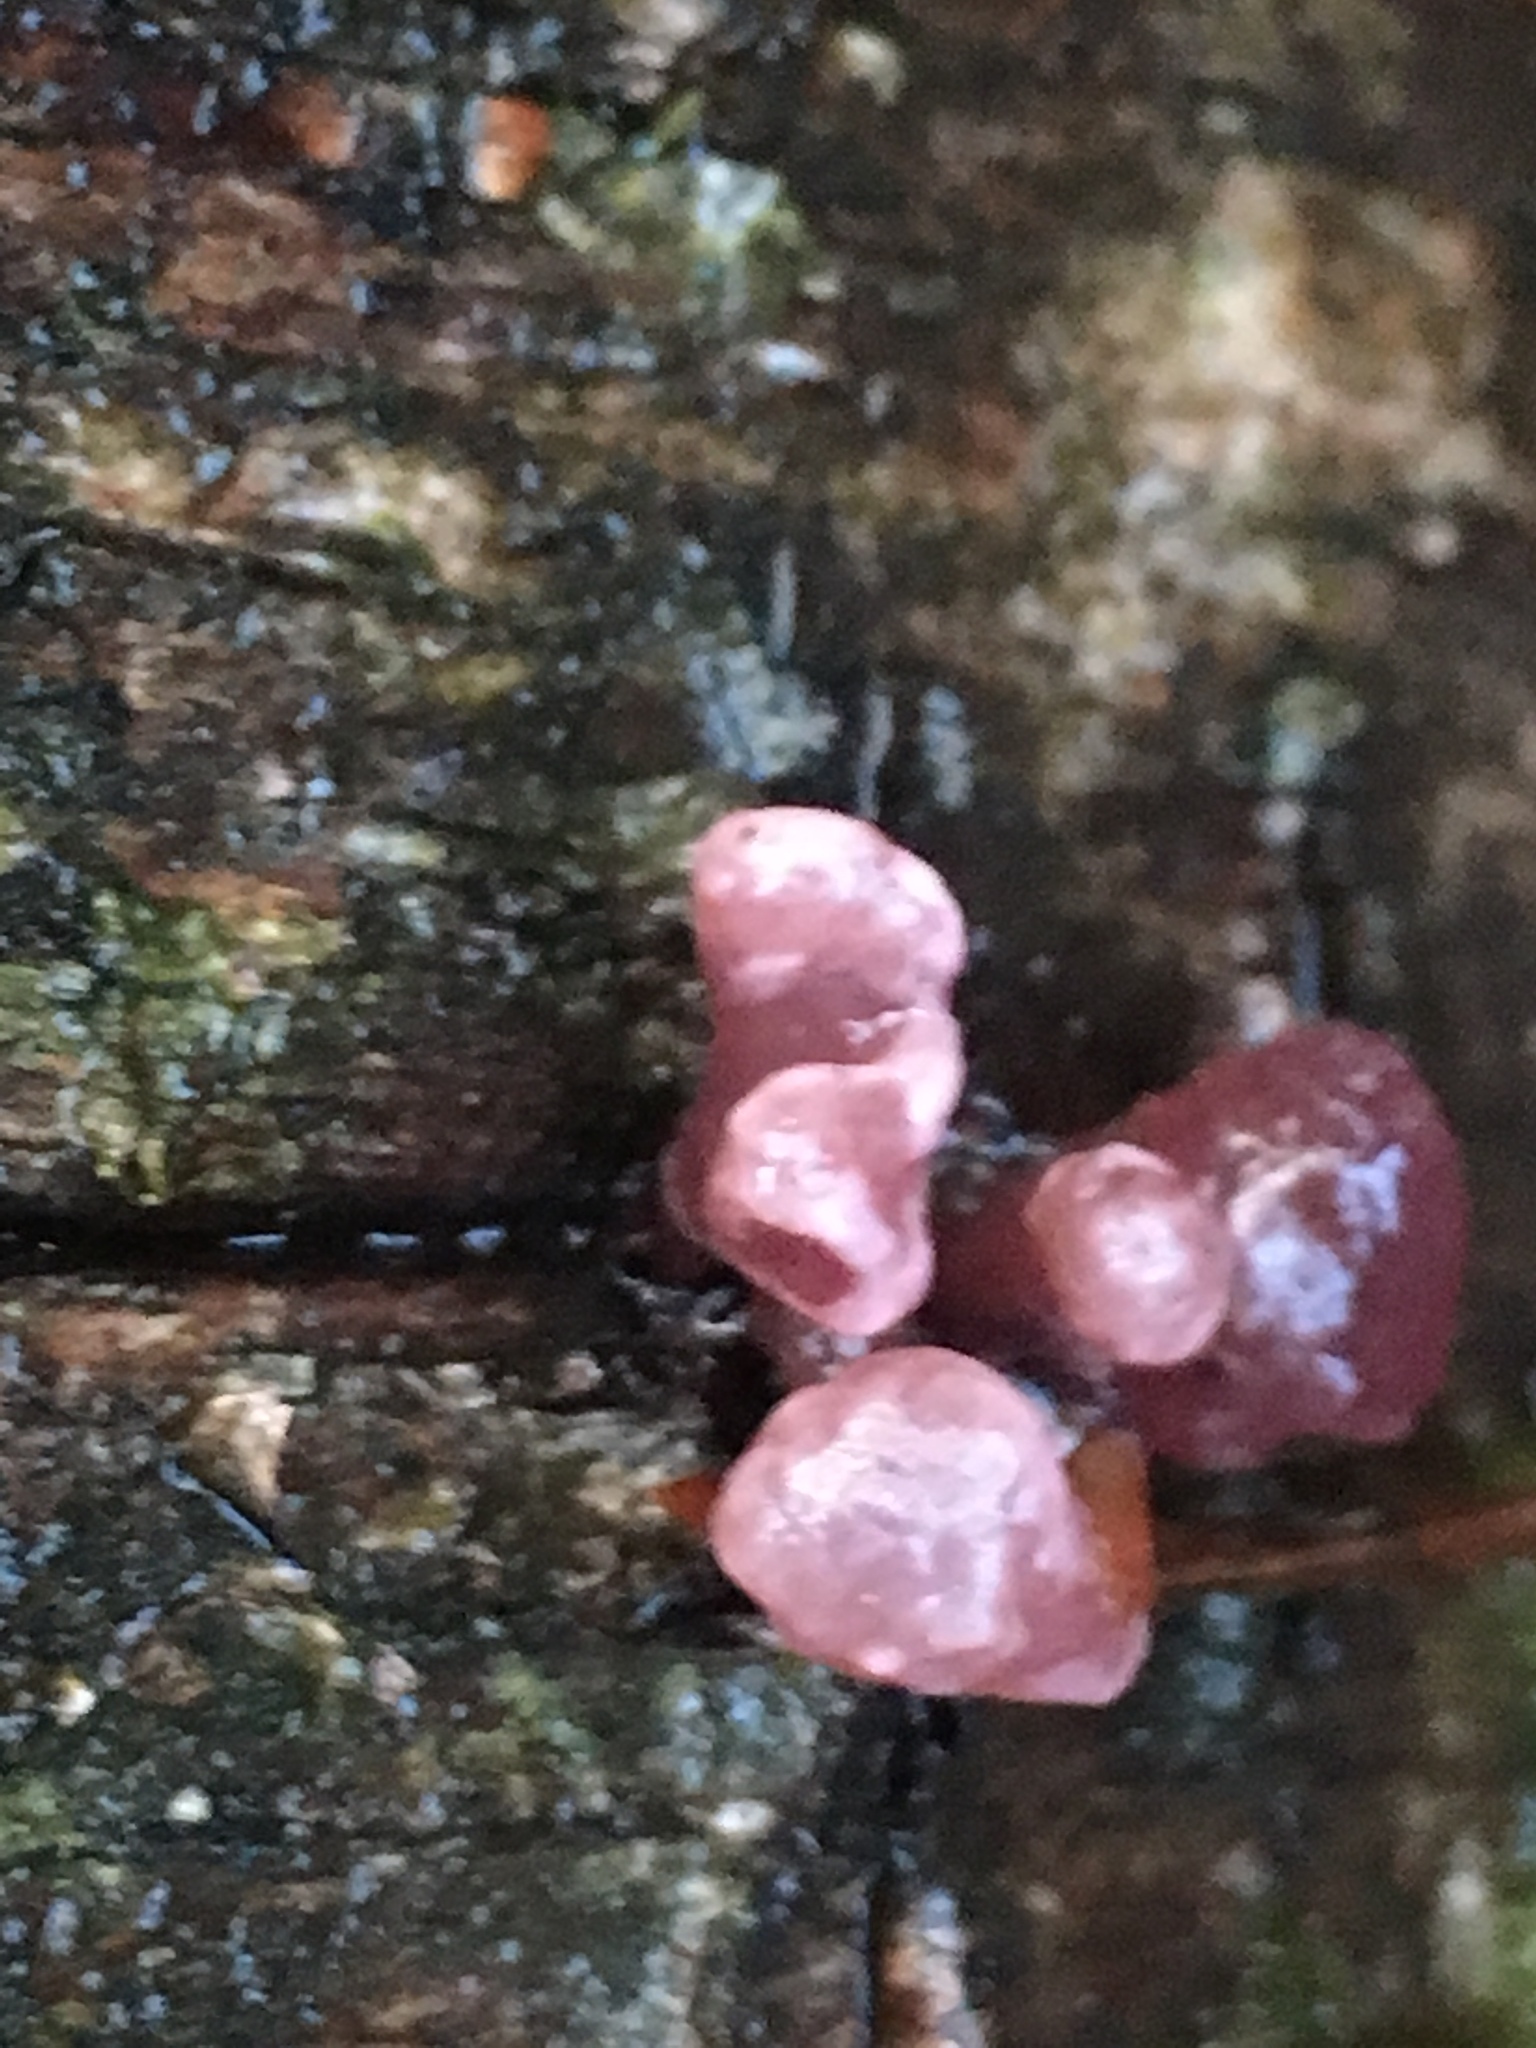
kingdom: Fungi
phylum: Ascomycota
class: Leotiomycetes
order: Helotiales
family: Gelatinodiscaceae
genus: Ascocoryne
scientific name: Ascocoryne sarcoides
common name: Purple jellydisc
